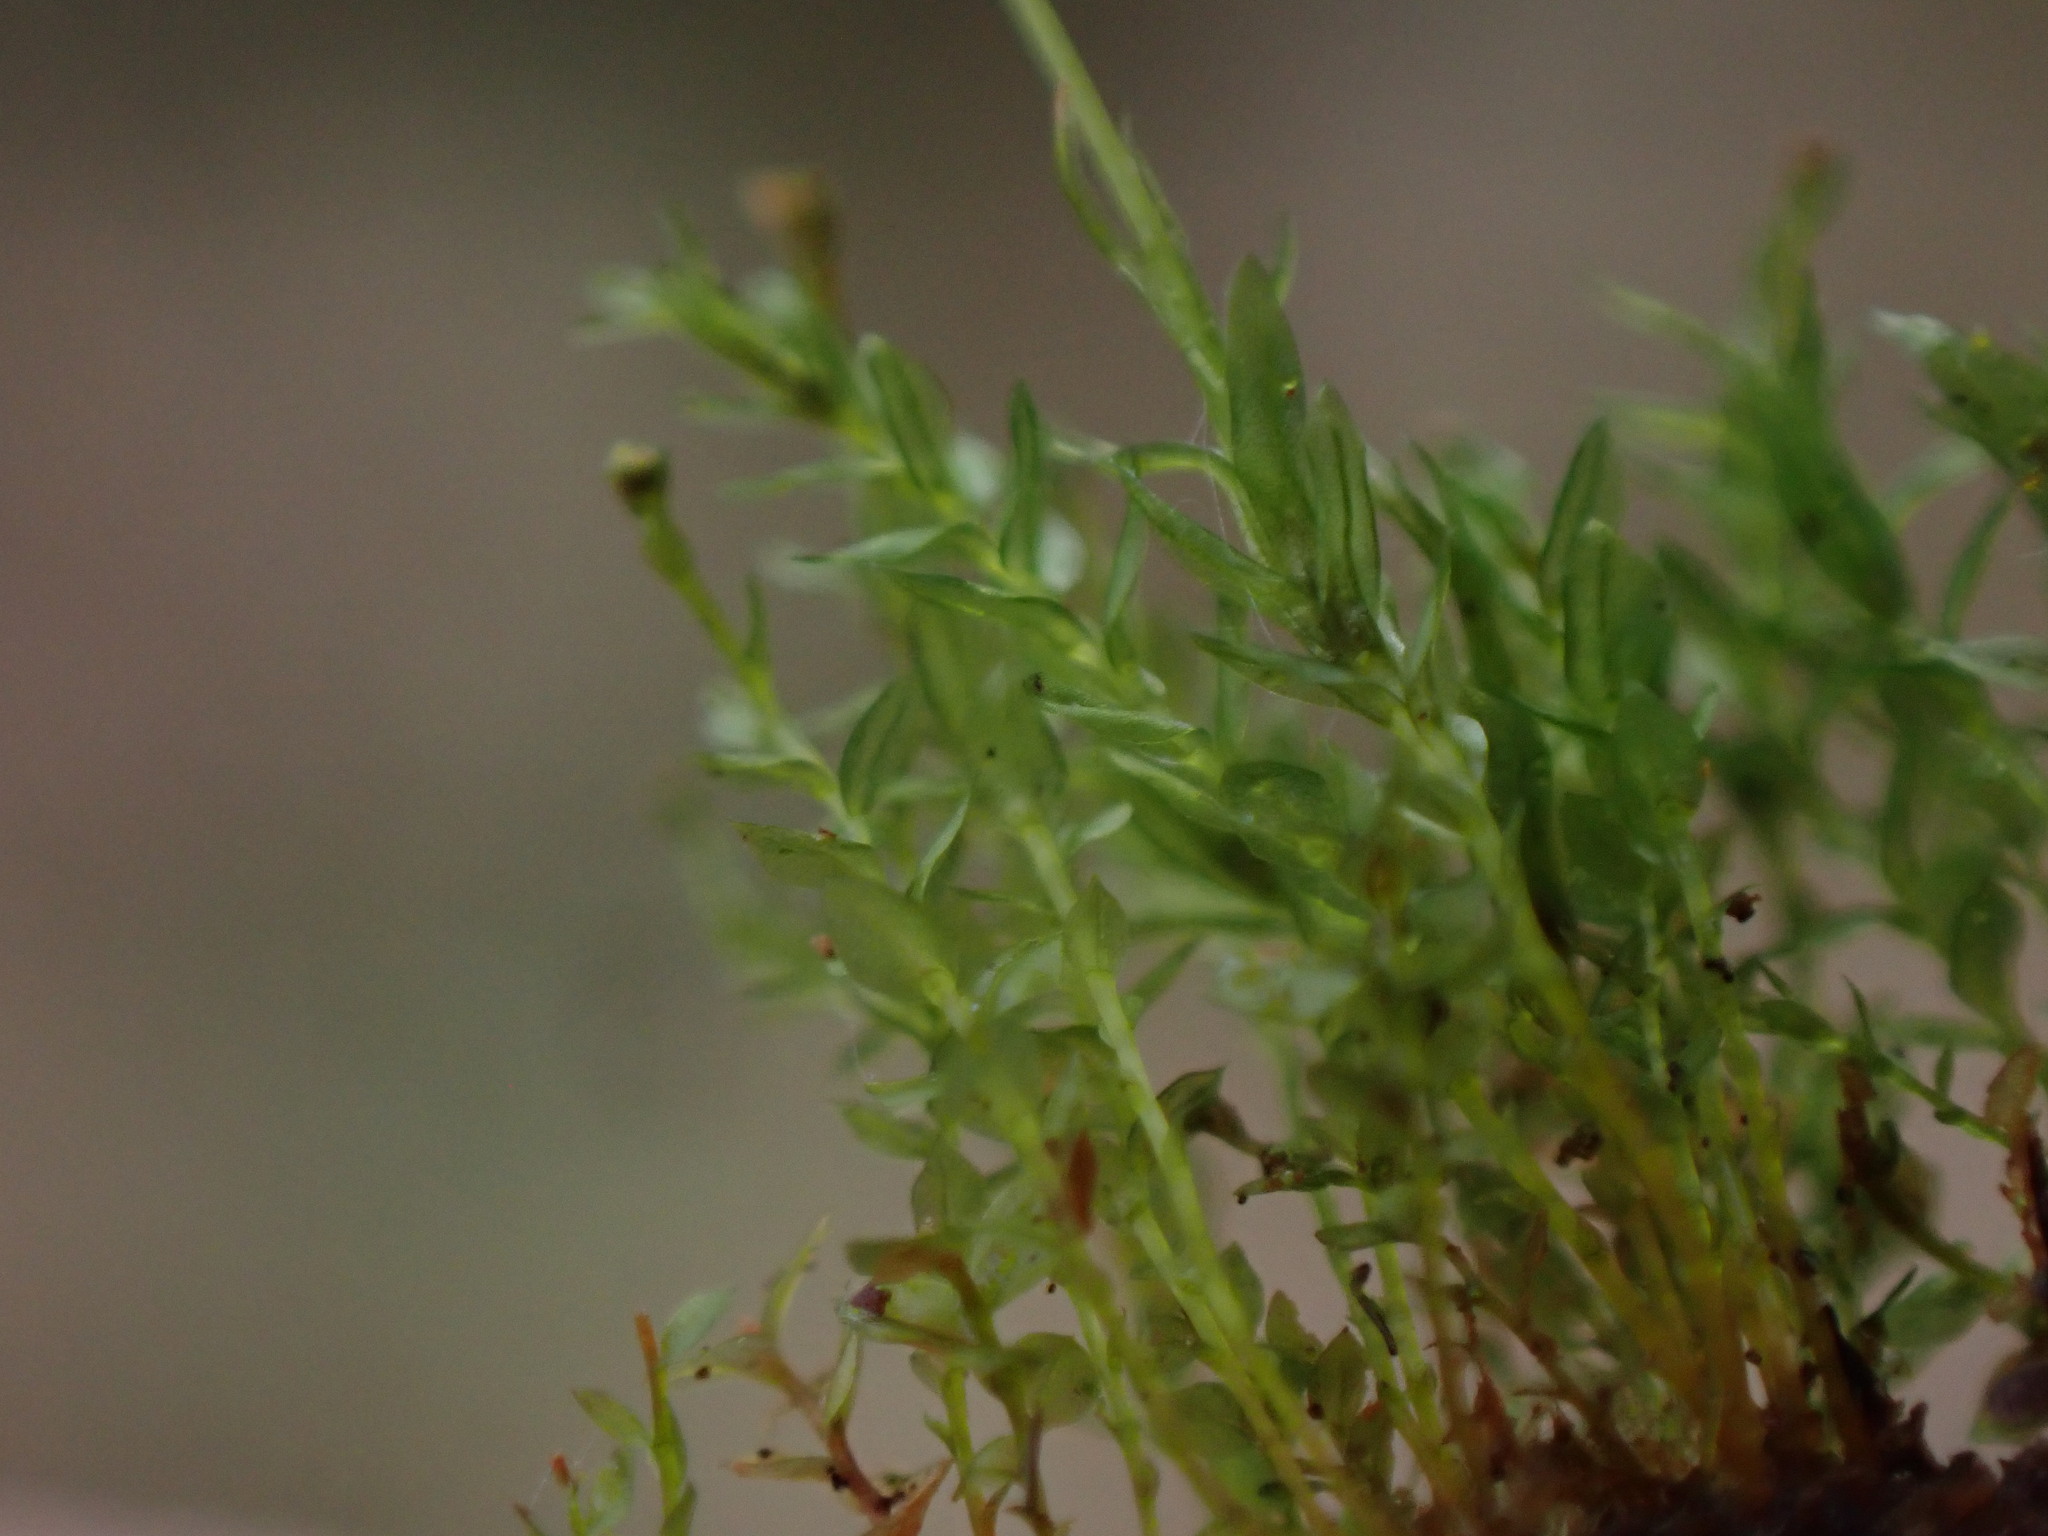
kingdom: Plantae
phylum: Bryophyta
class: Polytrichopsida
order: Tetraphidales
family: Tetraphidaceae
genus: Tetraphis
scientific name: Tetraphis pellucida
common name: Common four-toothed moss
